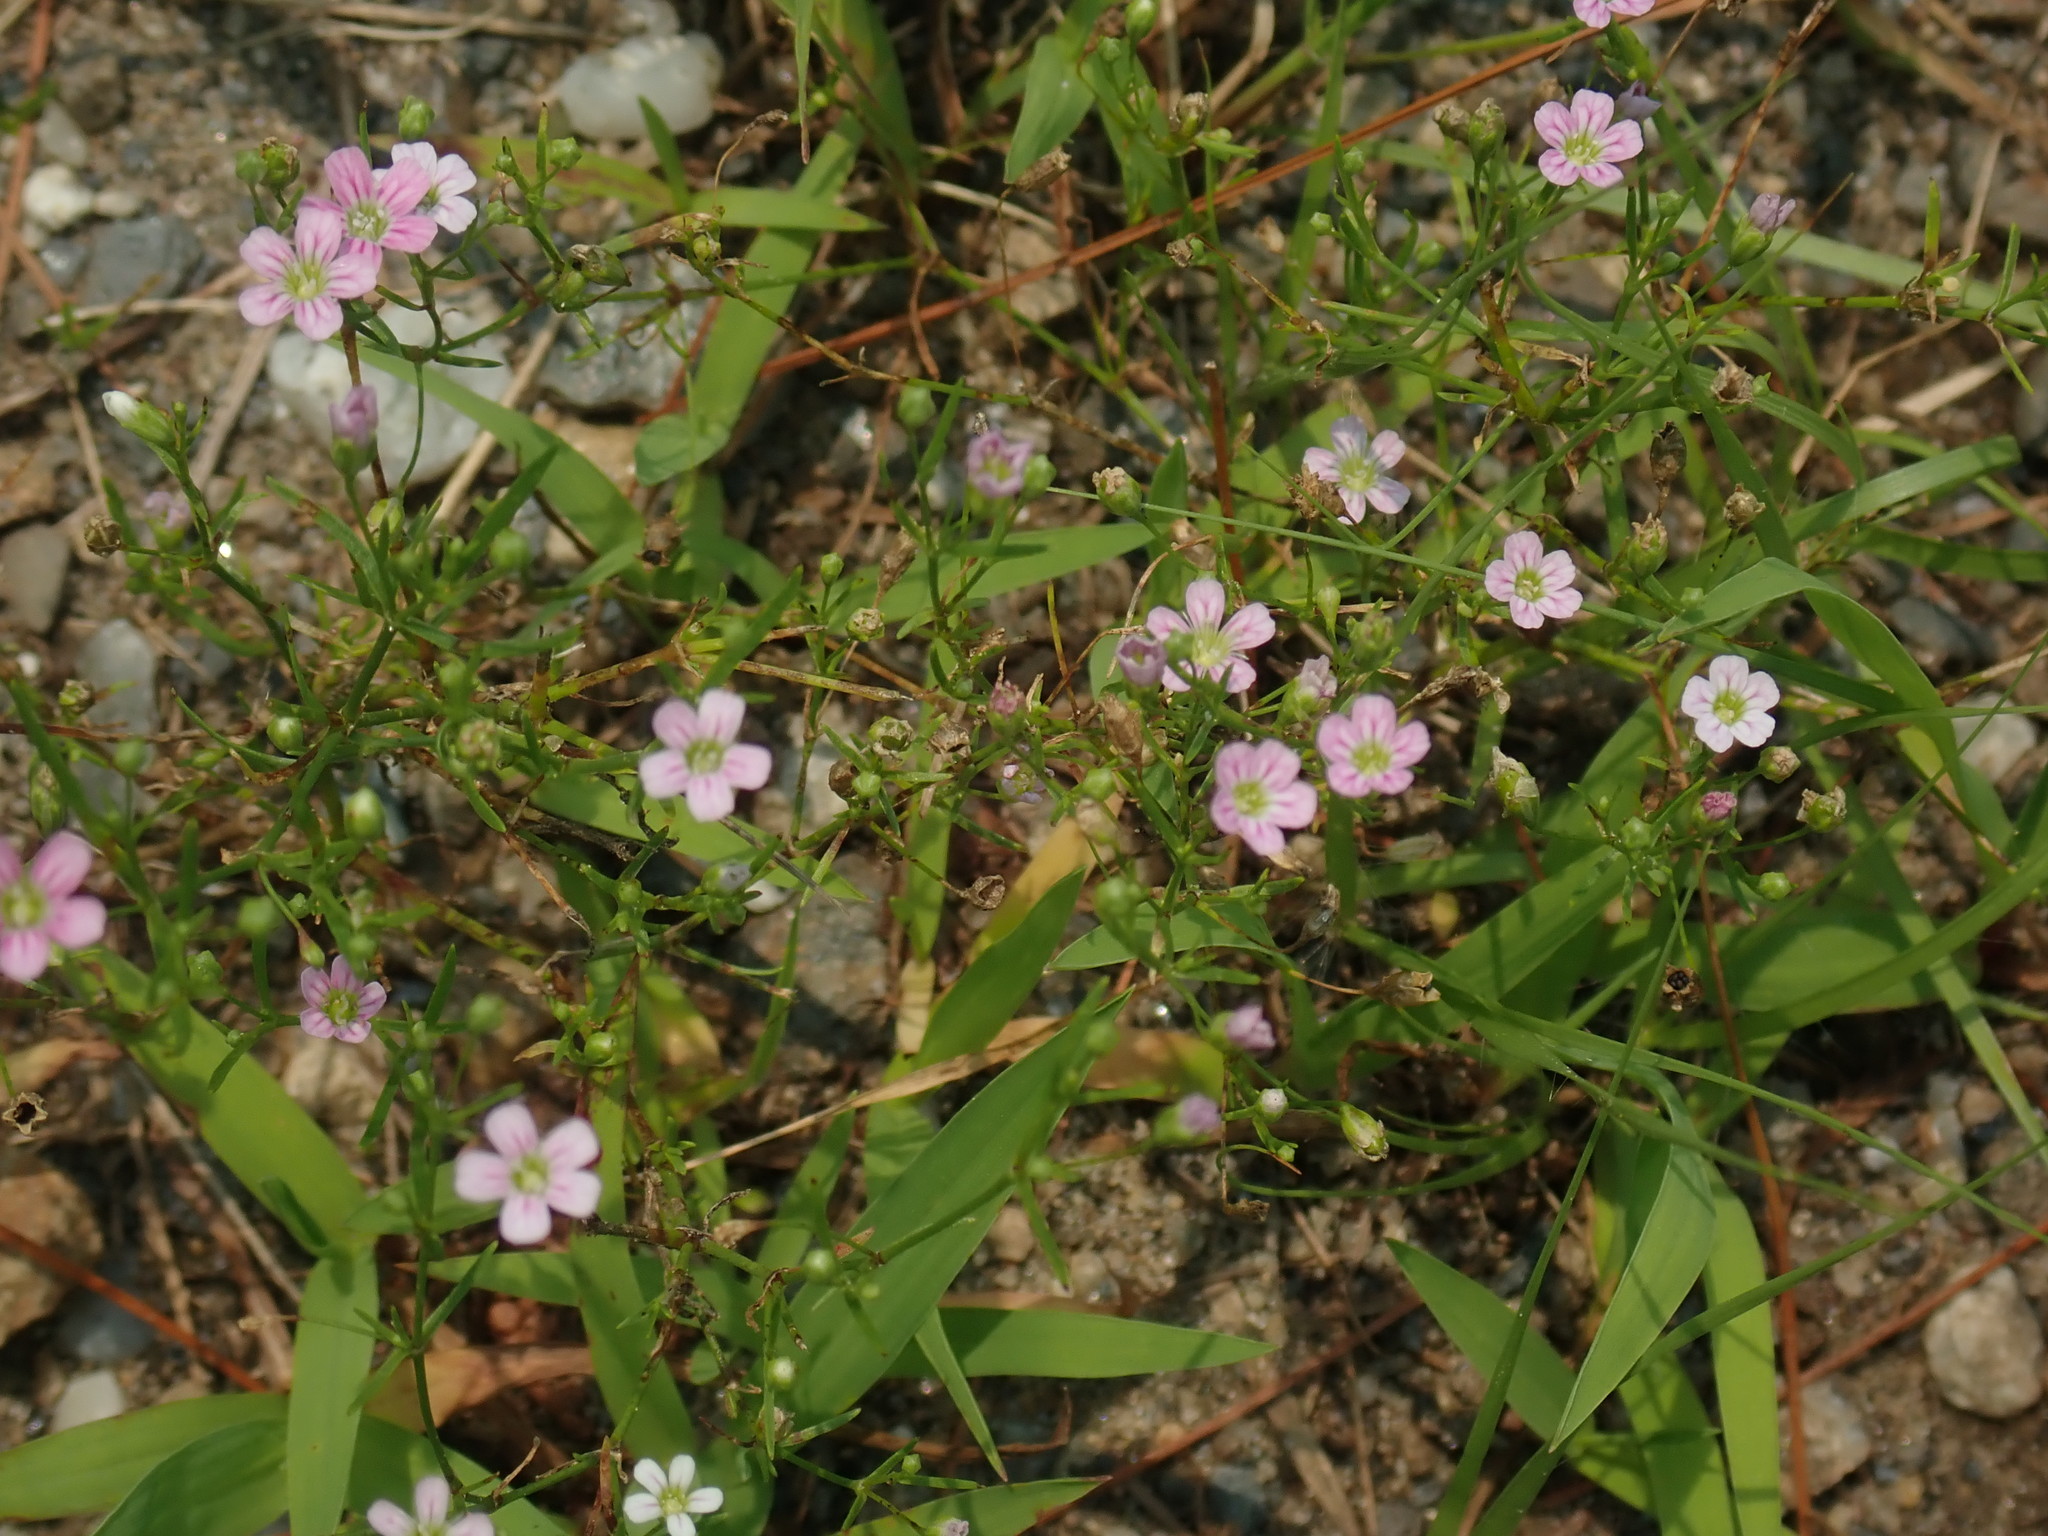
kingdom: Plantae
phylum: Tracheophyta
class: Magnoliopsida
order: Caryophyllales
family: Caryophyllaceae
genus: Psammophiliella
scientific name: Psammophiliella muralis
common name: Cushion baby's-breath
